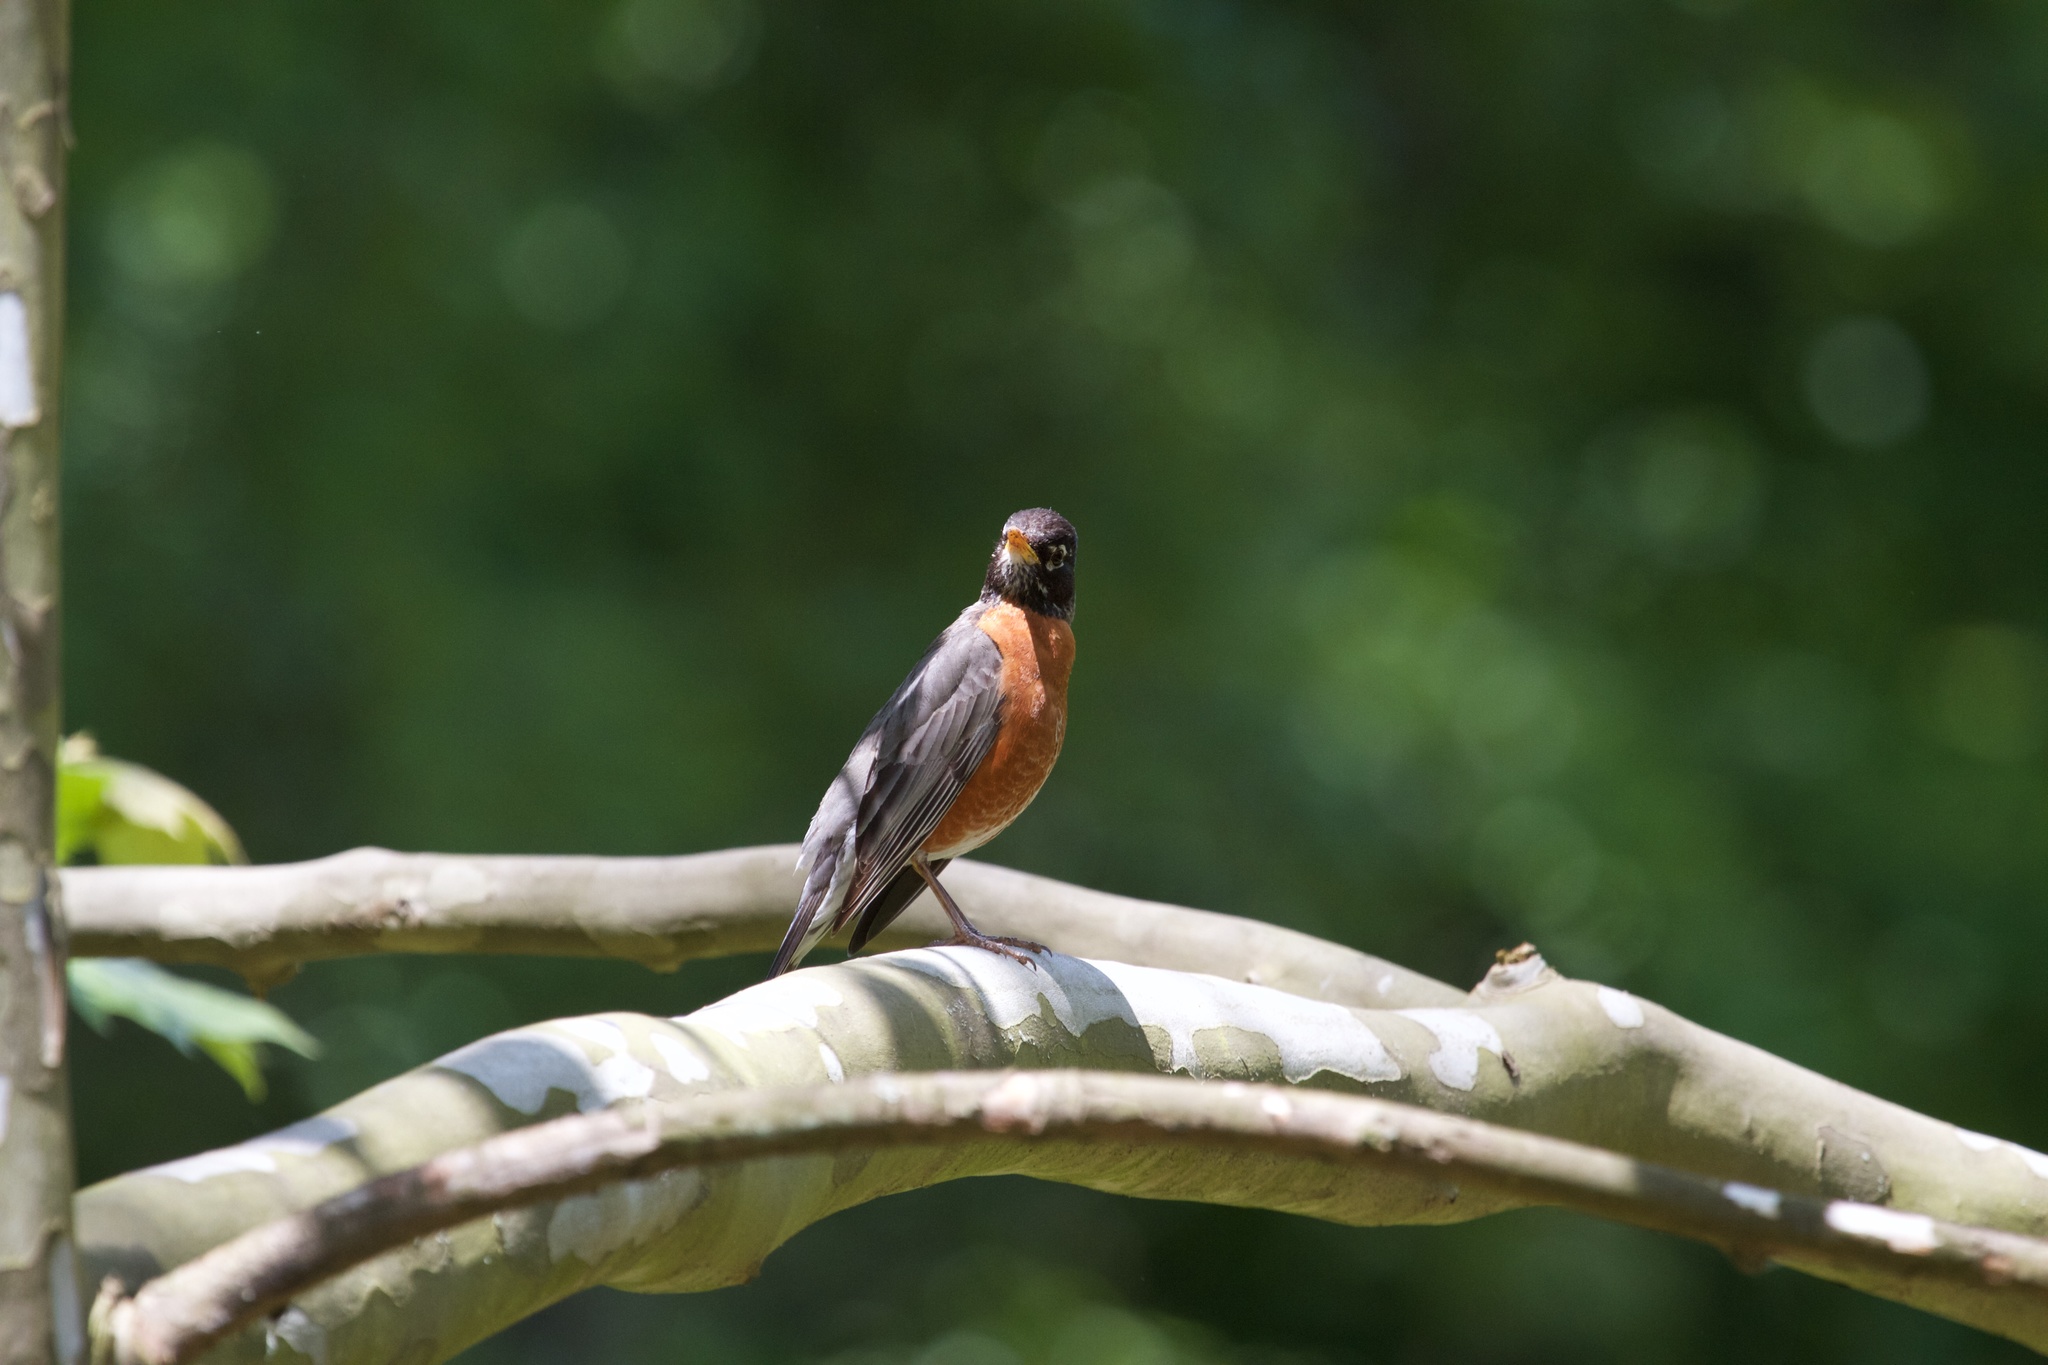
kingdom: Animalia
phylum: Chordata
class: Aves
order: Passeriformes
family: Turdidae
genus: Turdus
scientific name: Turdus migratorius
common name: American robin
